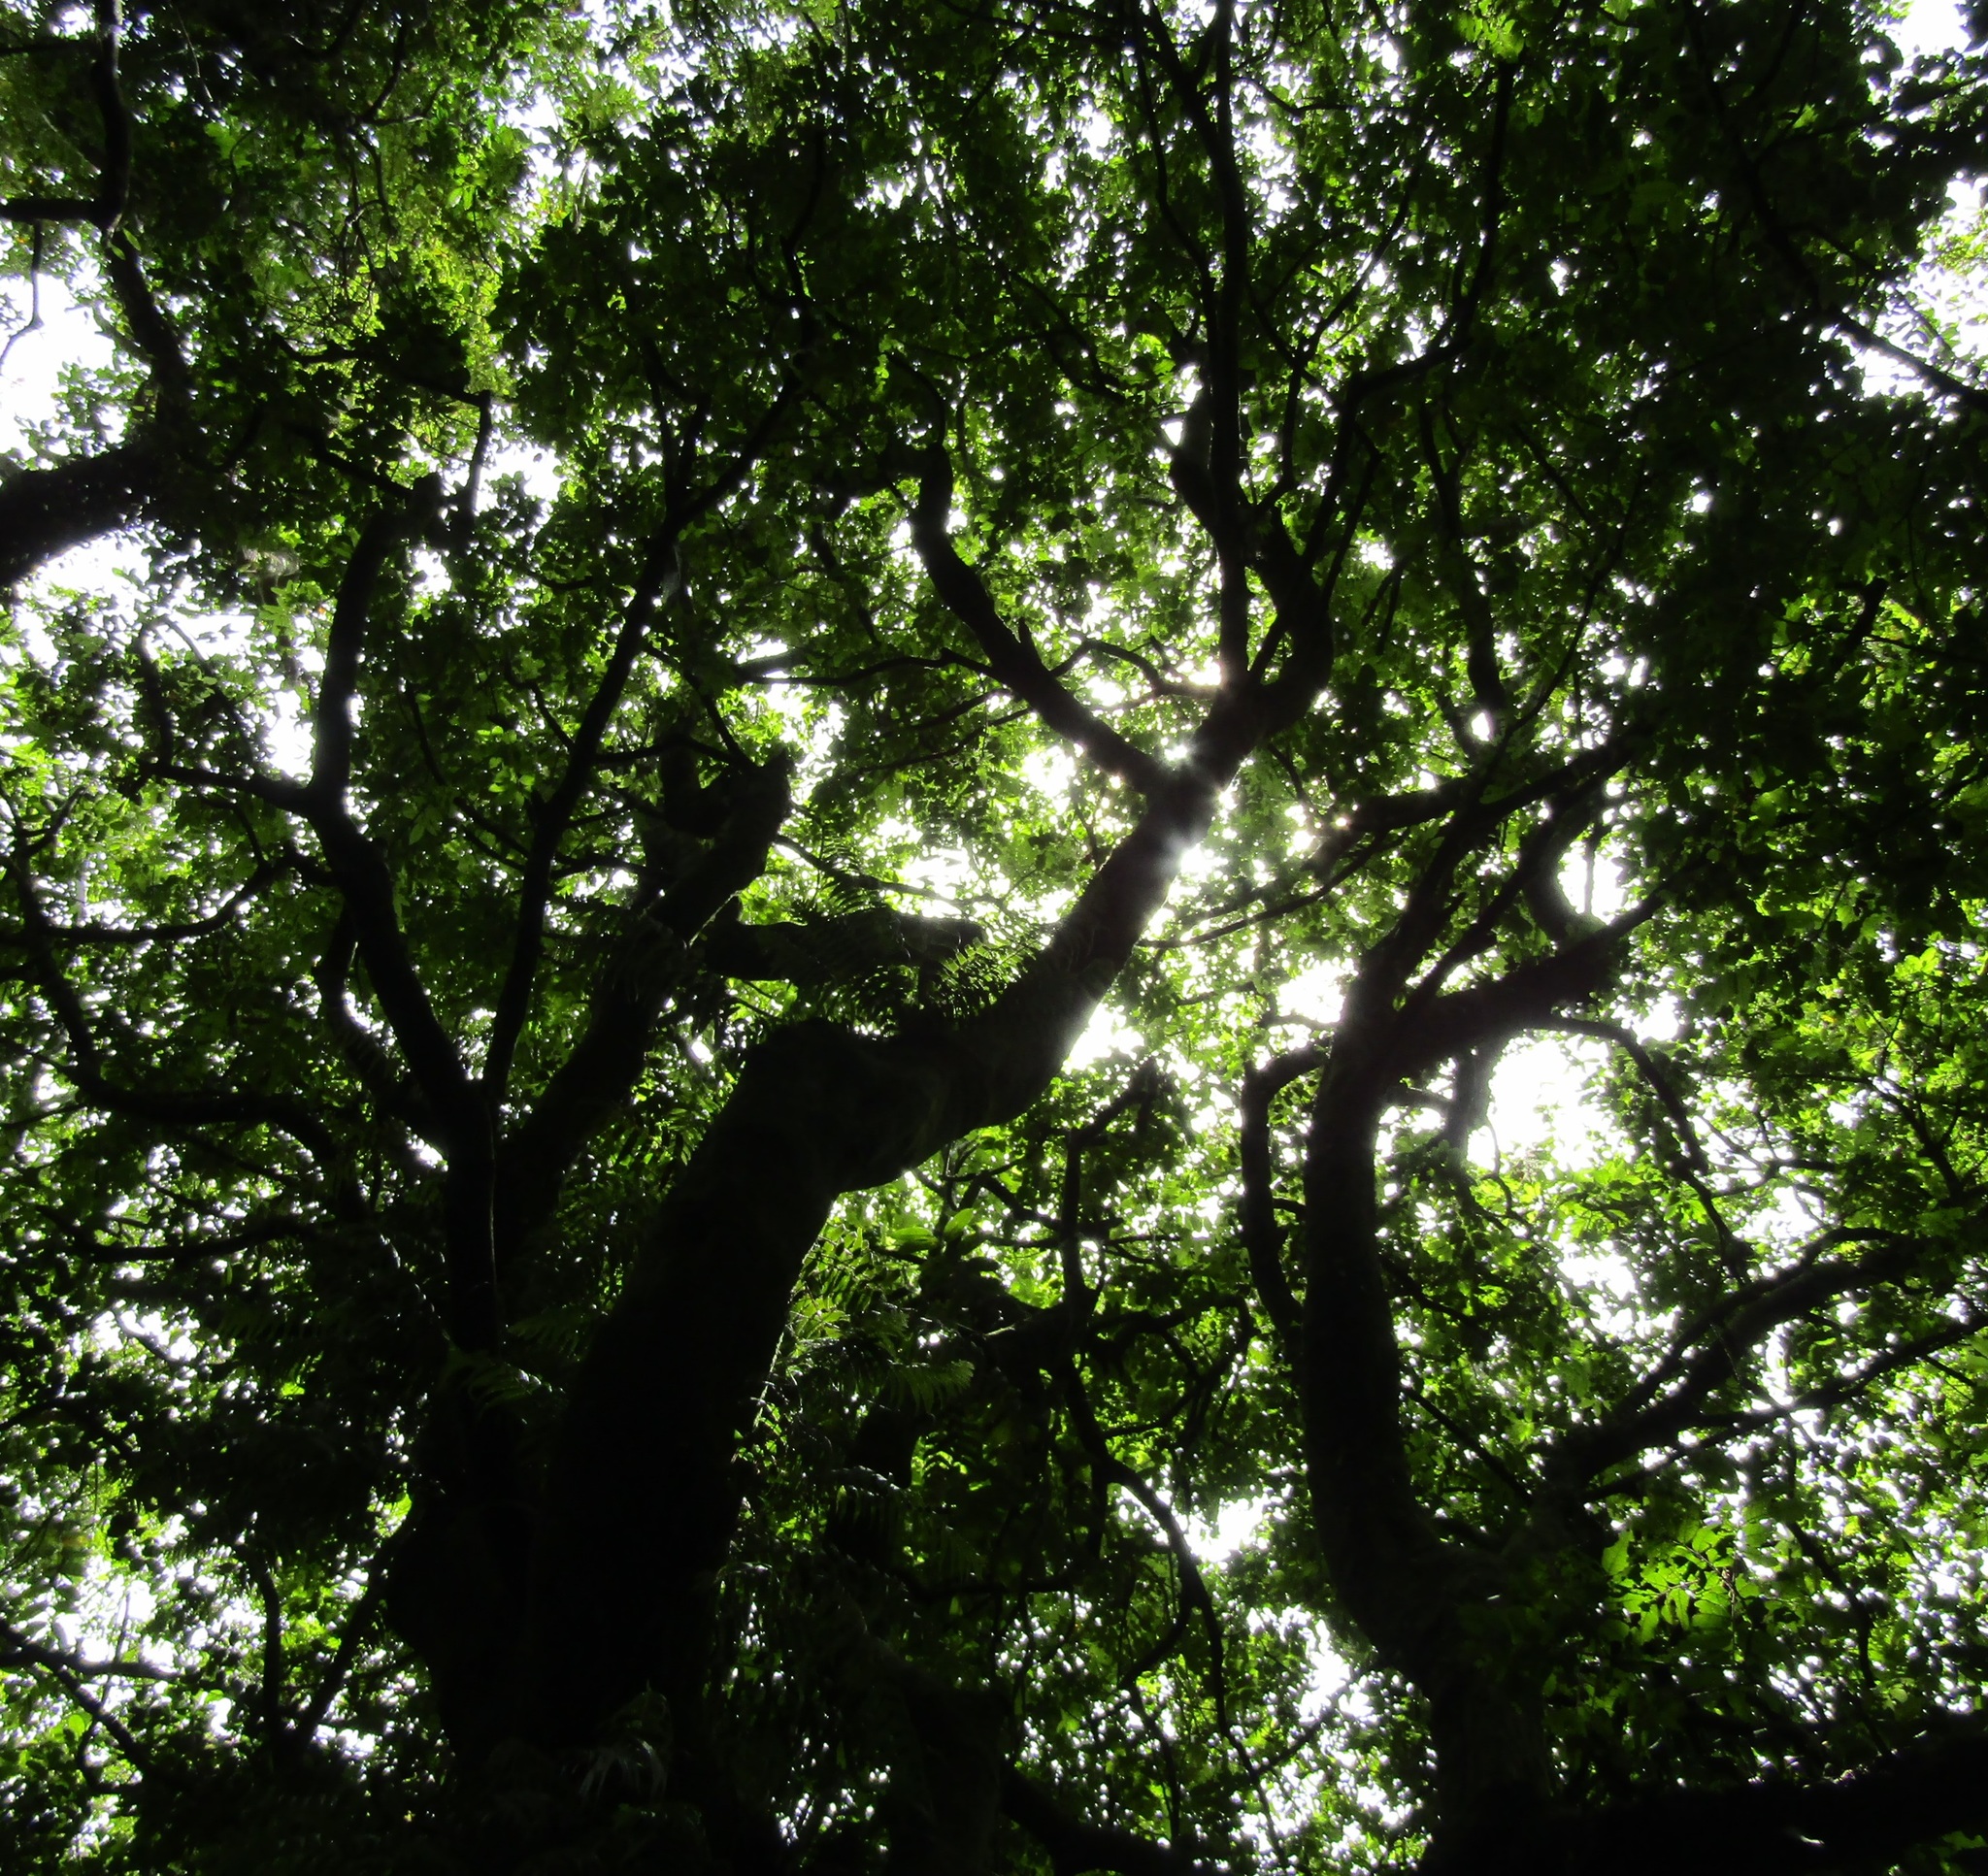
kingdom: Plantae
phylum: Tracheophyta
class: Magnoliopsida
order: Sapindales
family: Sapindaceae
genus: Alectryon
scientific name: Alectryon excelsus
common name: Three kings titoki
